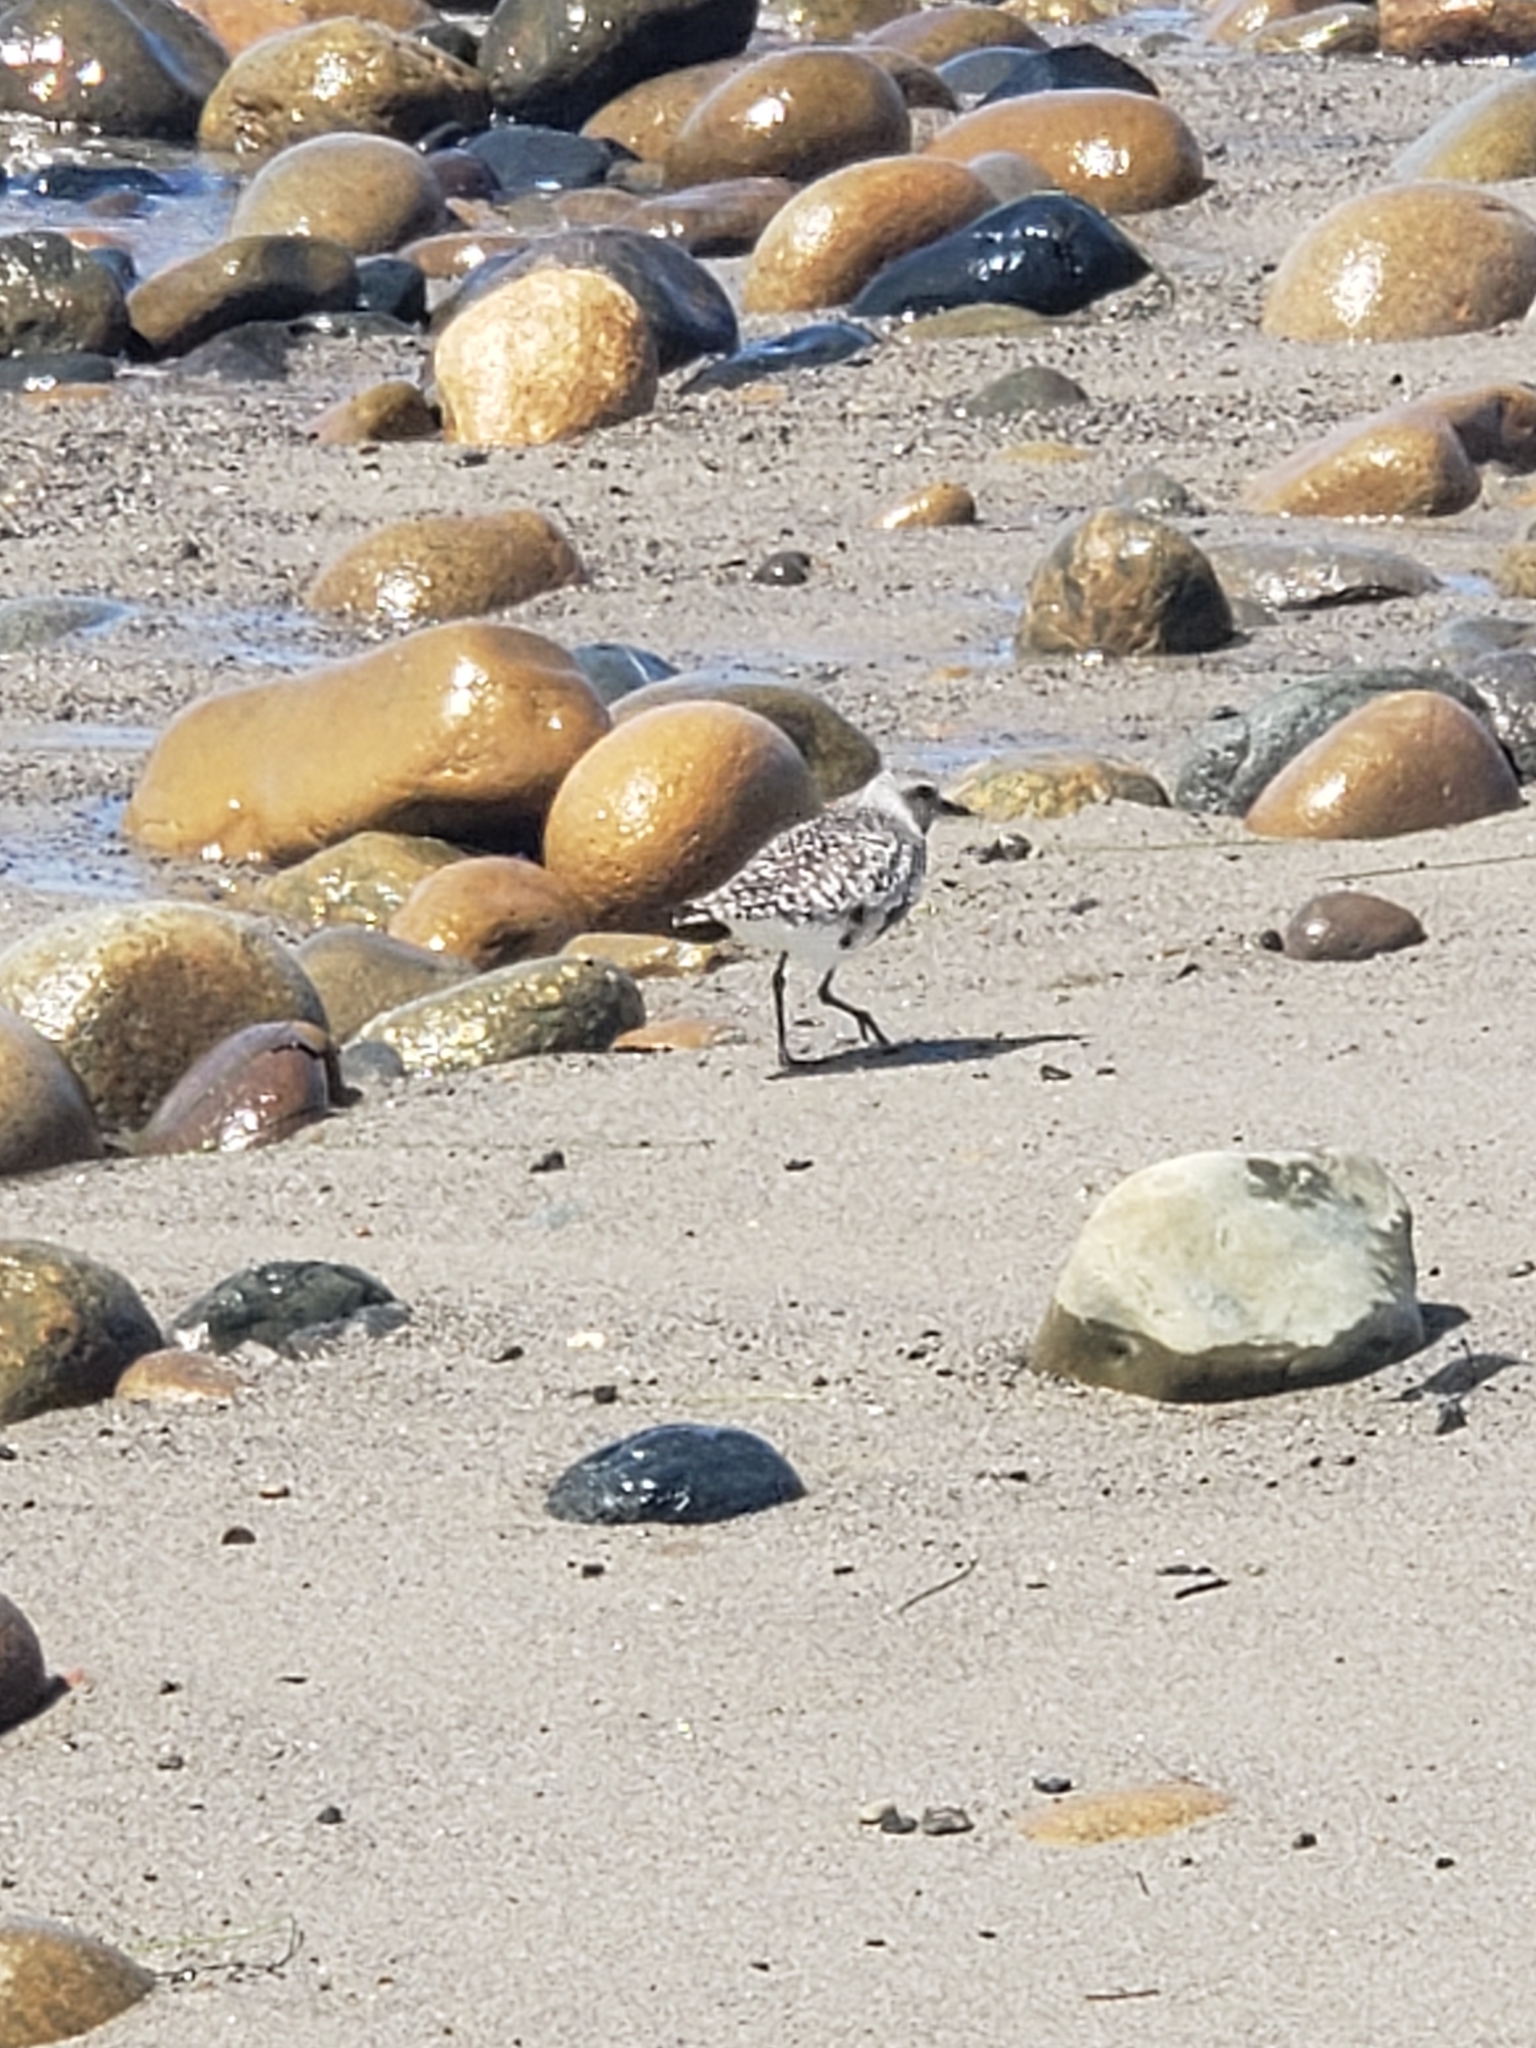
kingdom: Animalia
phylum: Chordata
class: Aves
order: Charadriiformes
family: Charadriidae
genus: Pluvialis
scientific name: Pluvialis squatarola
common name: Grey plover
